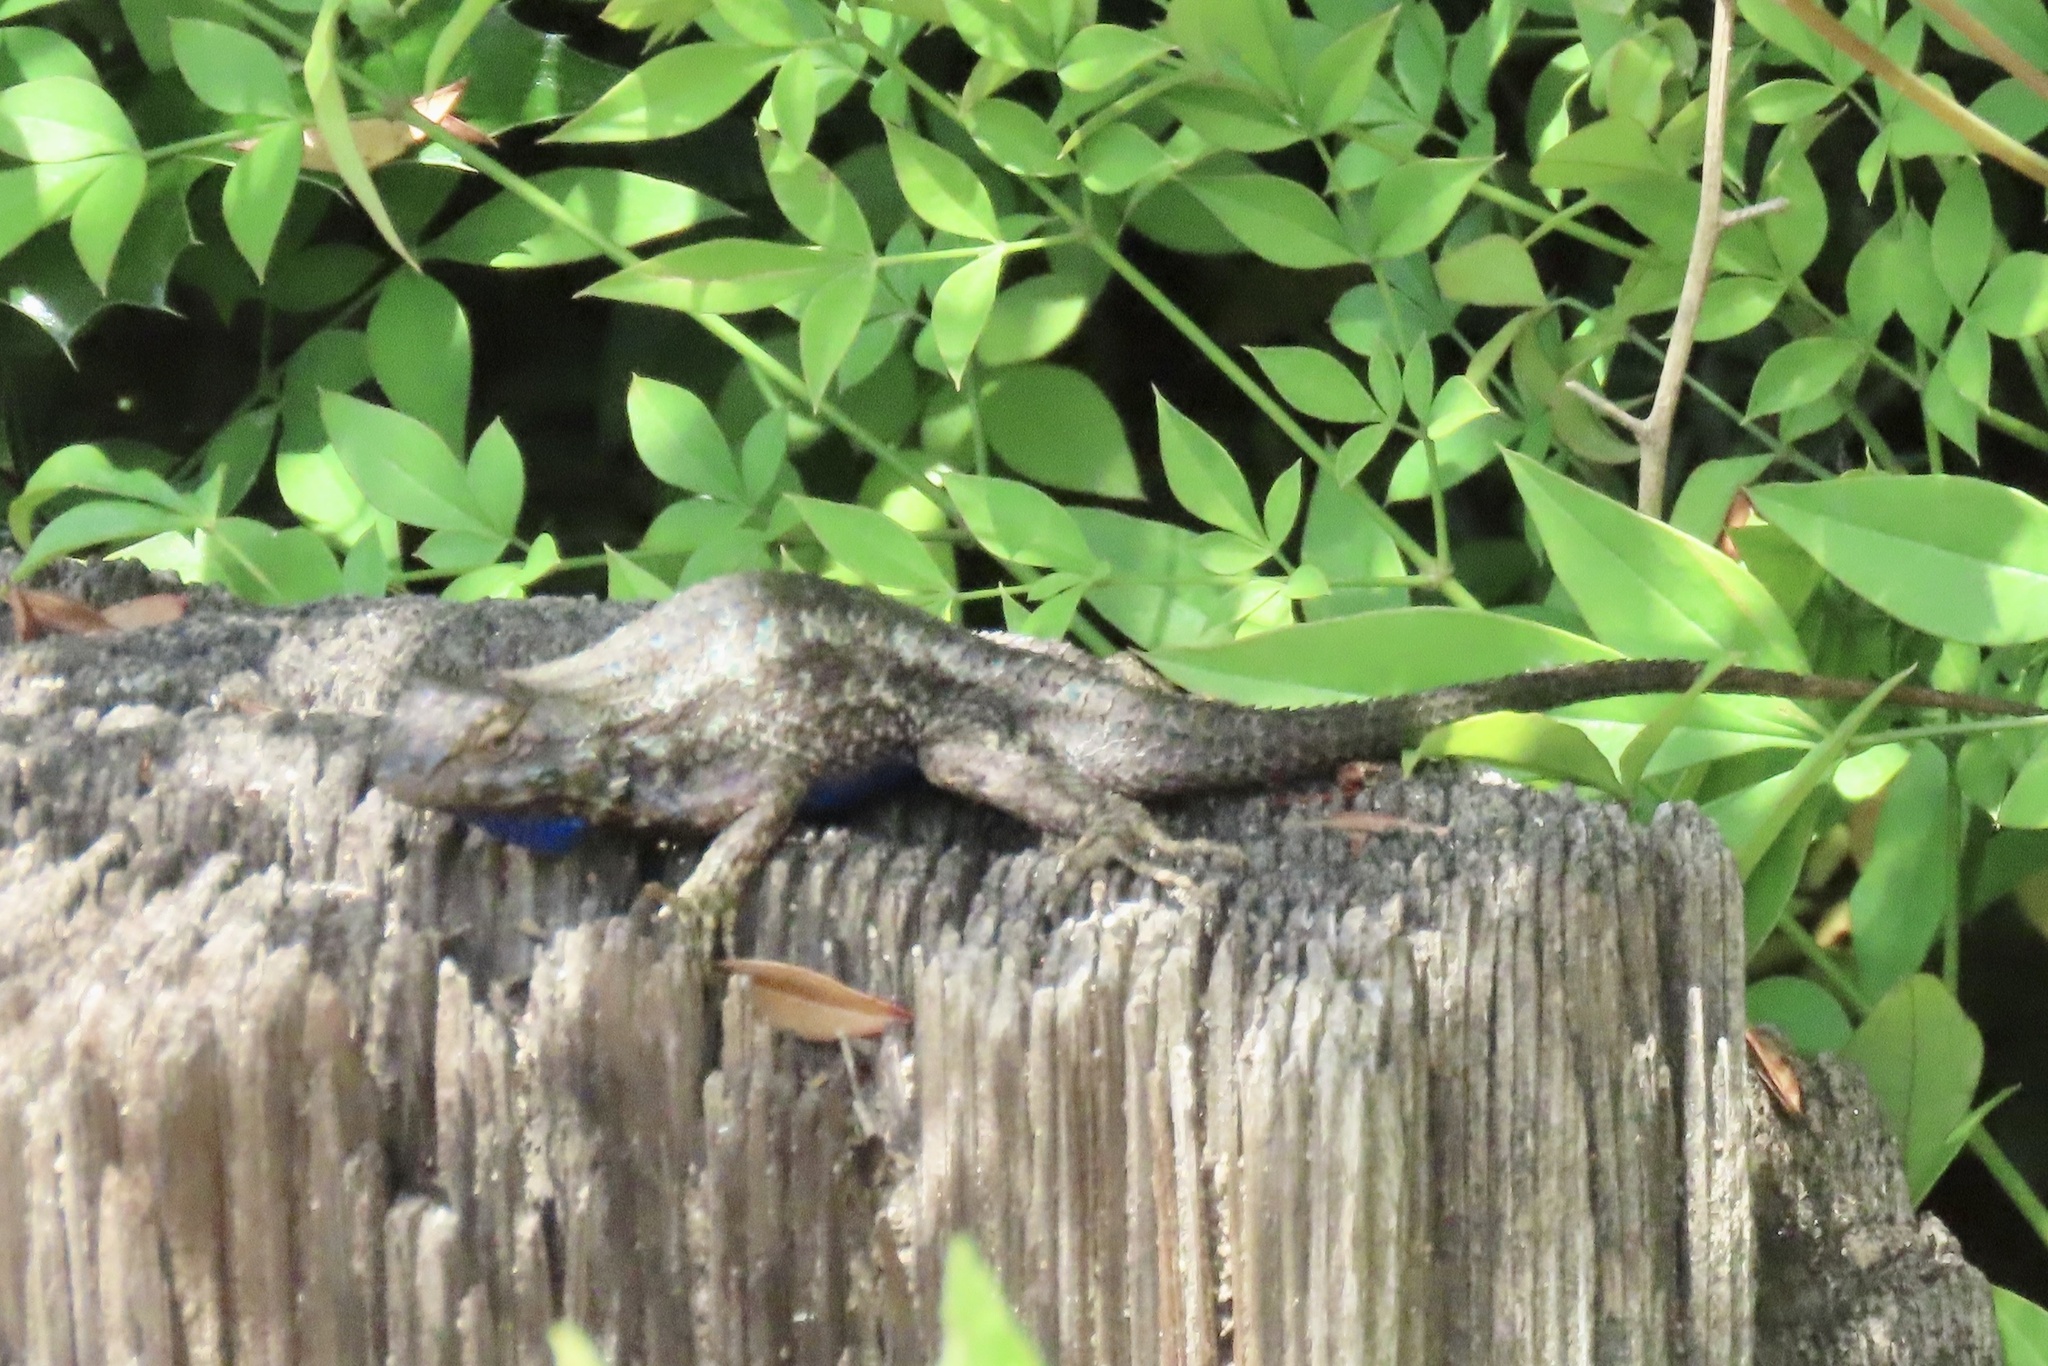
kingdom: Animalia
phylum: Chordata
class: Squamata
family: Phrynosomatidae
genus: Sceloporus
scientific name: Sceloporus occidentalis
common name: Western fence lizard
